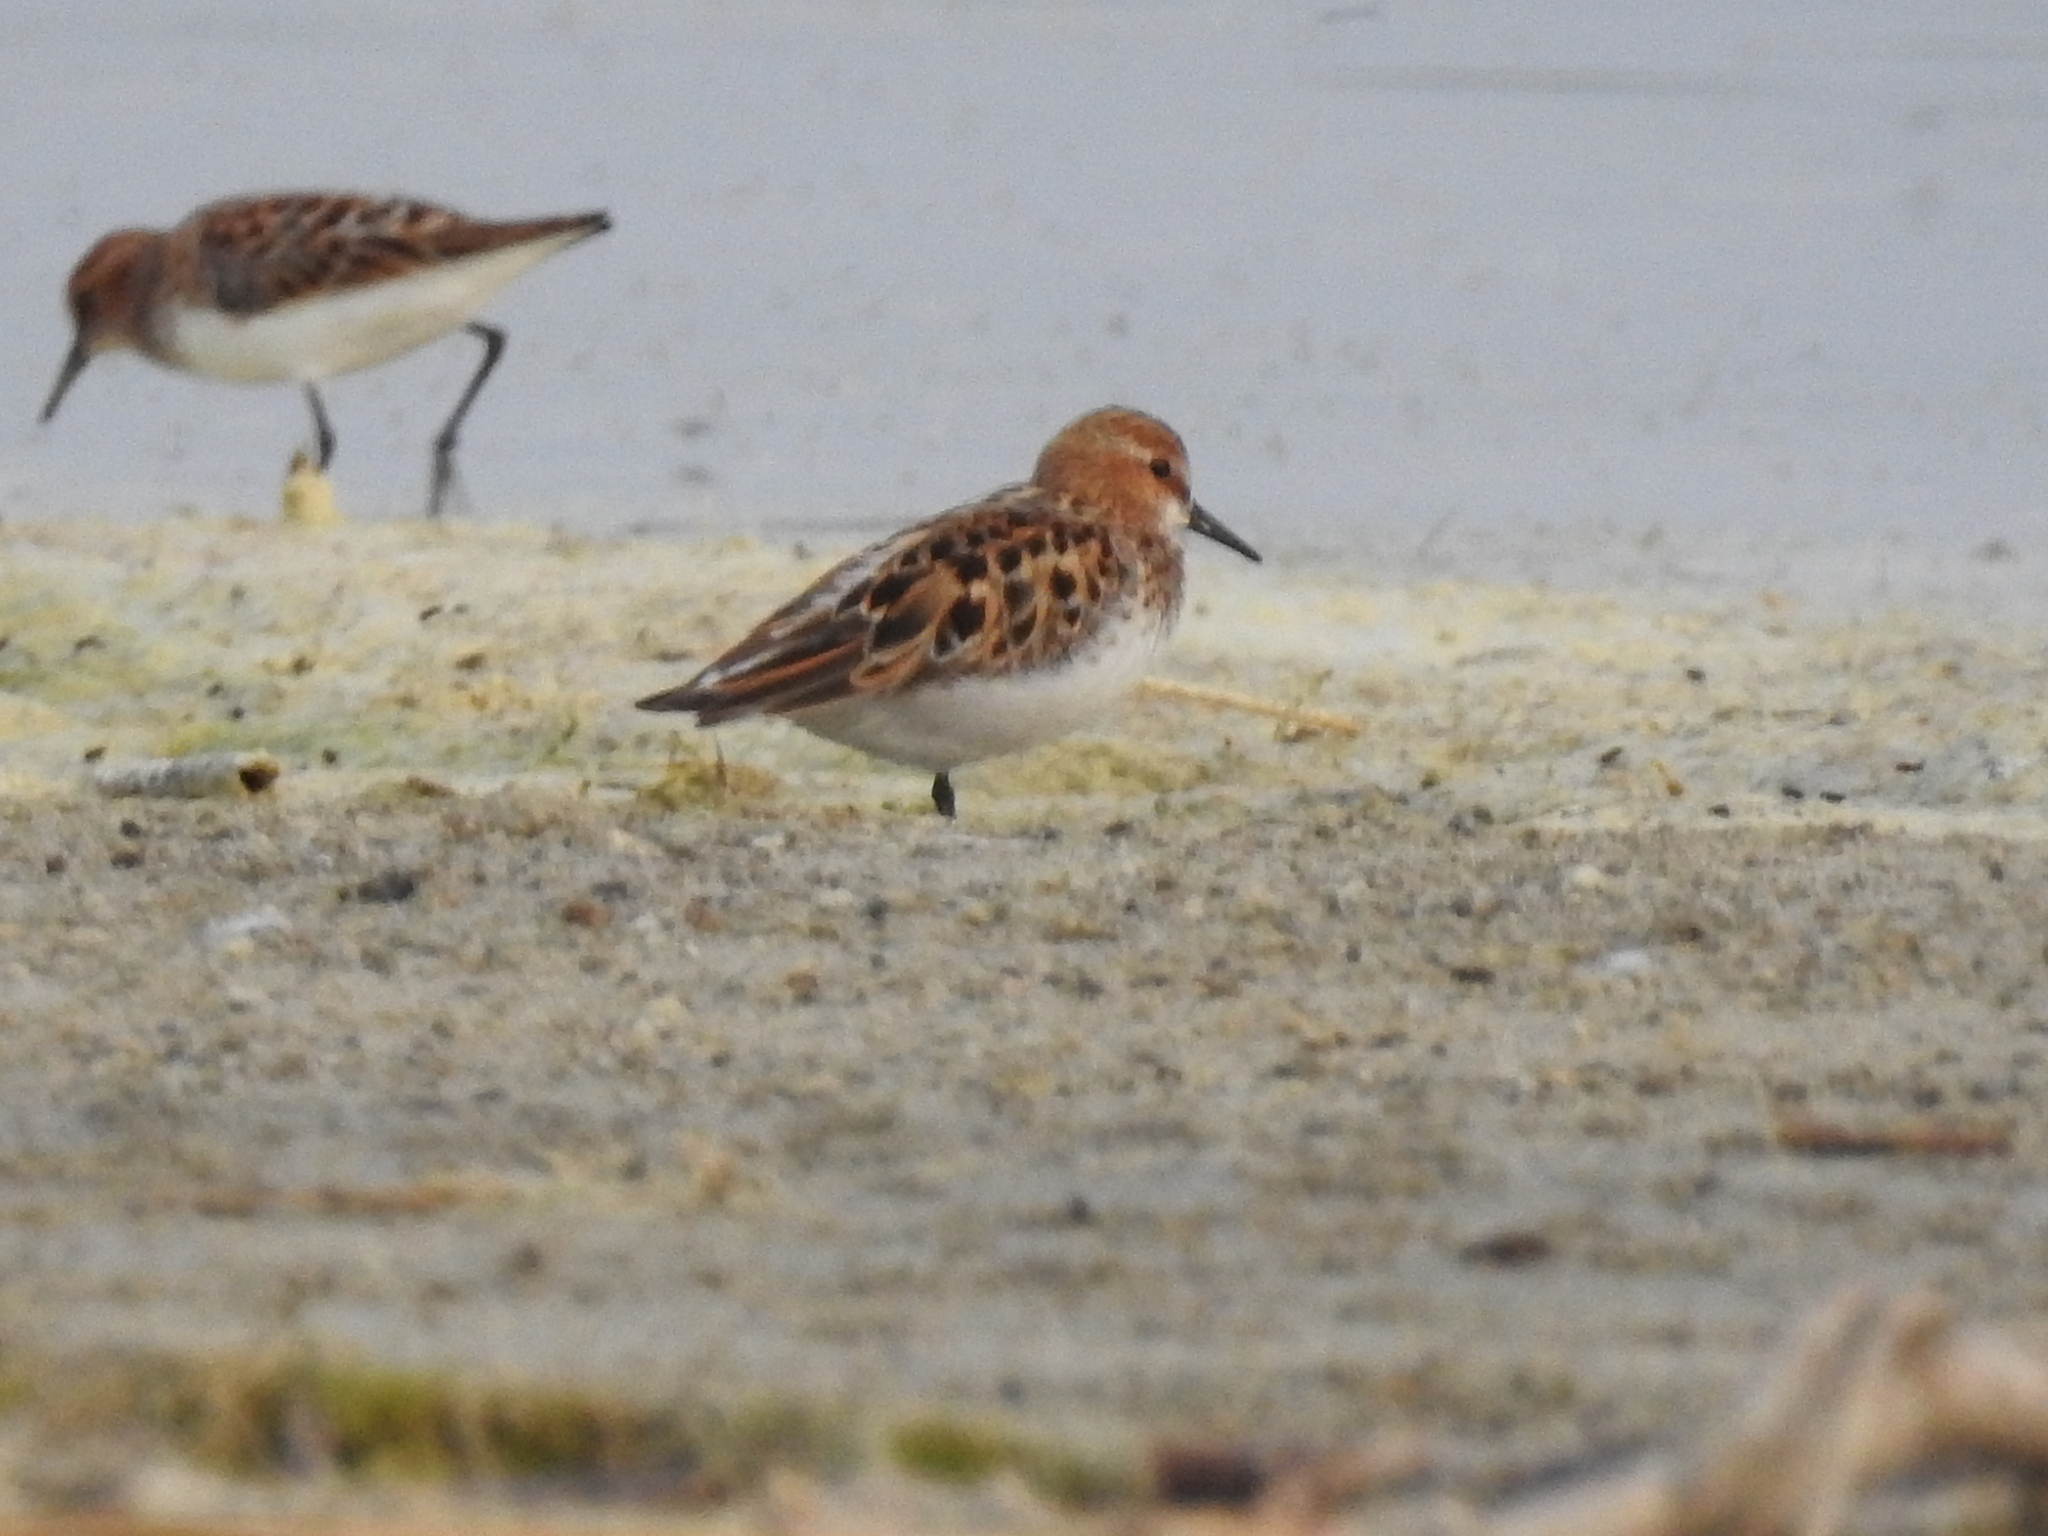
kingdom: Animalia
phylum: Chordata
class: Aves
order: Charadriiformes
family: Scolopacidae
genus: Calidris
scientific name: Calidris minuta
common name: Little stint
